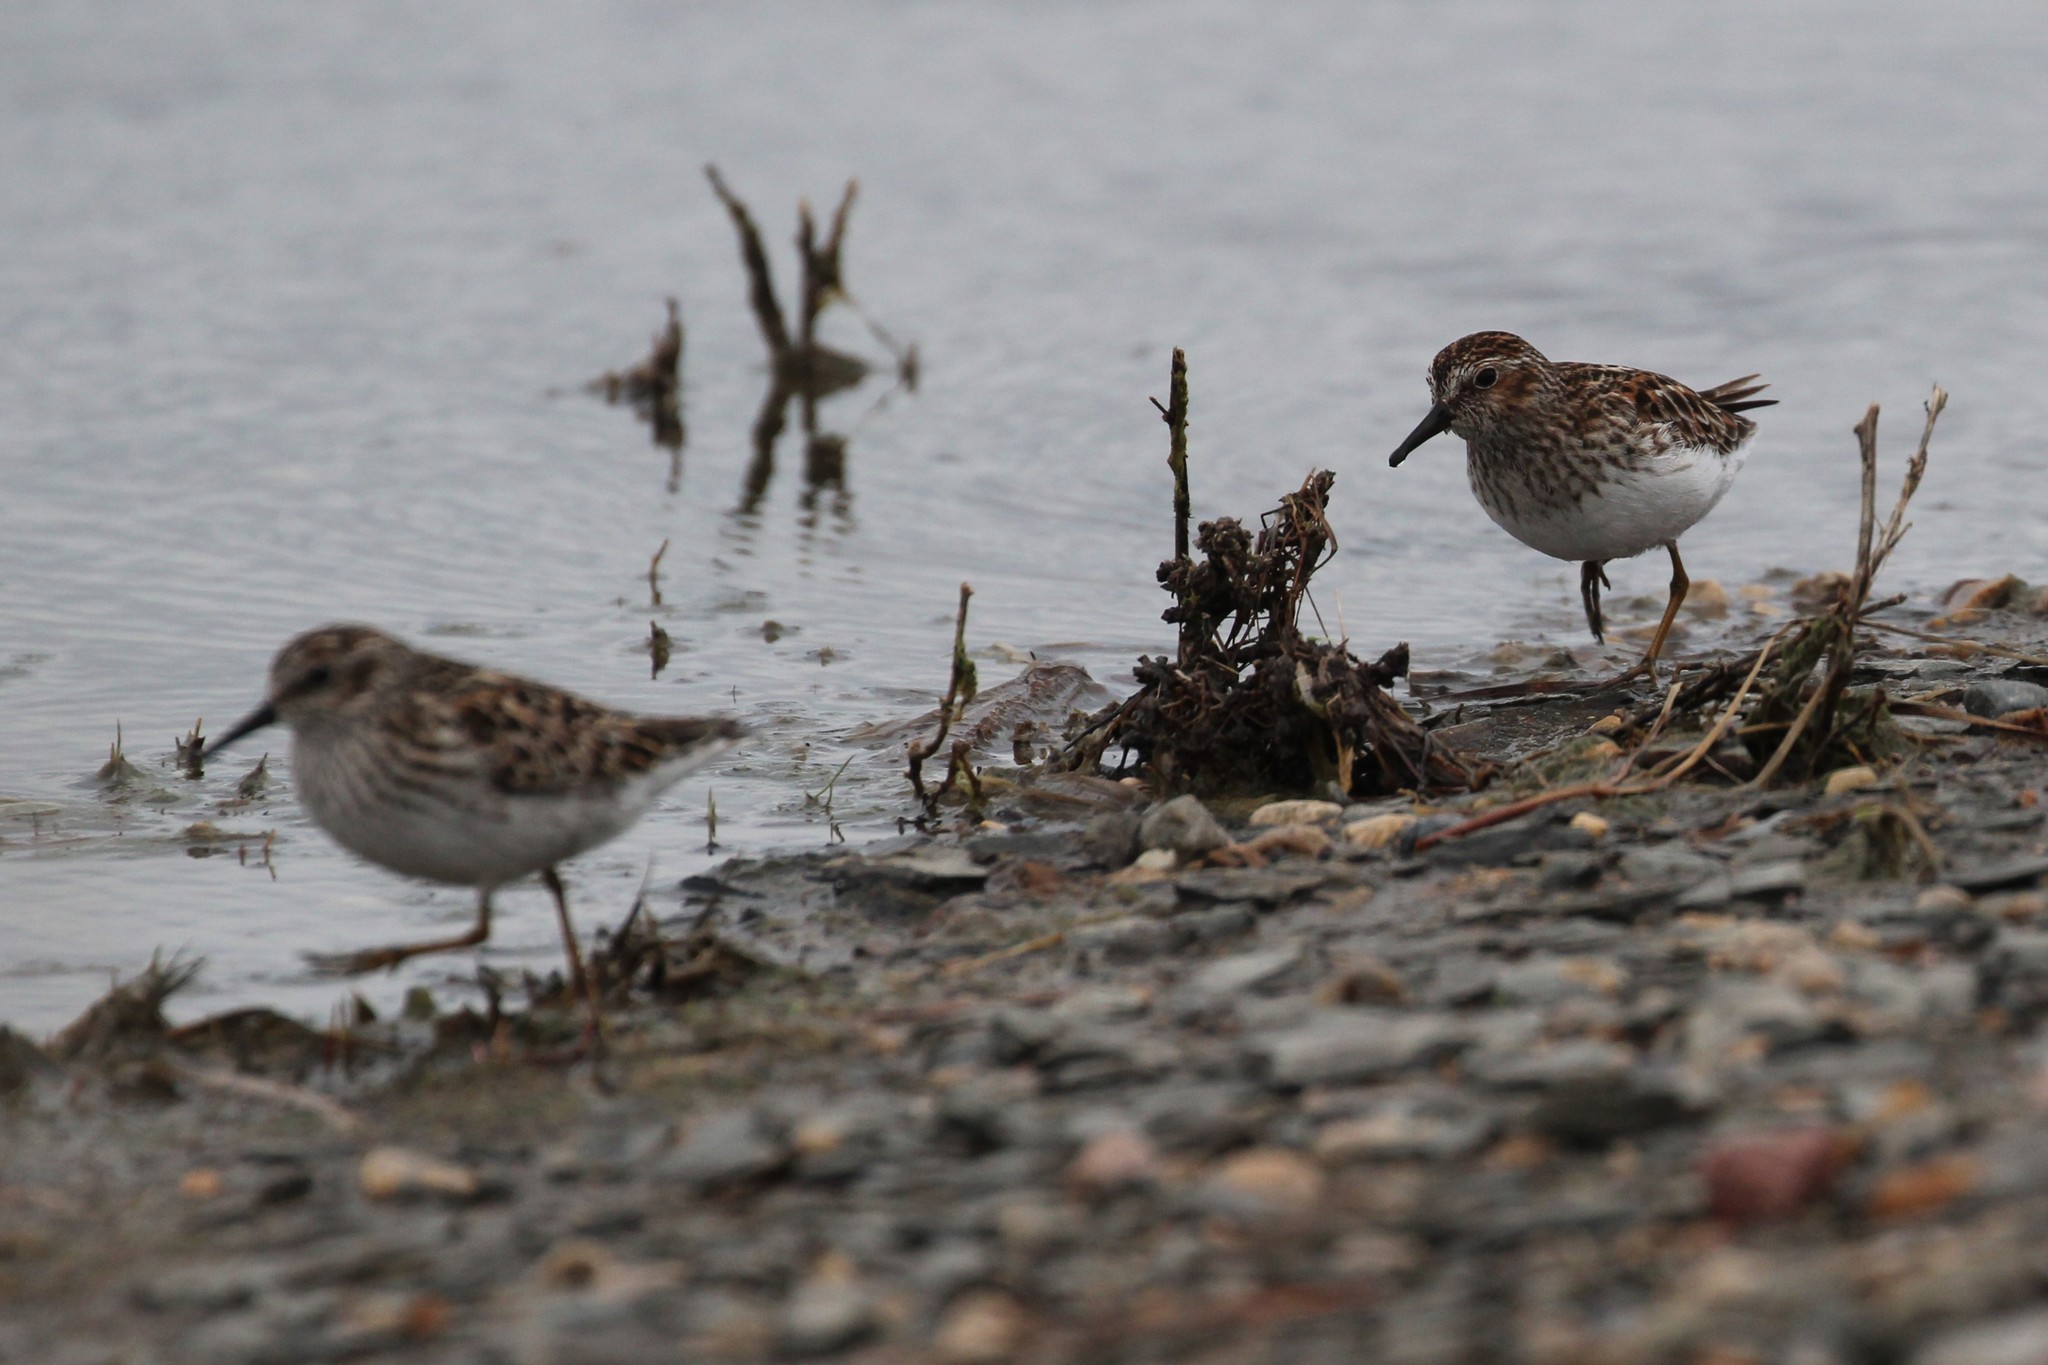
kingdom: Animalia
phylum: Chordata
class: Aves
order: Charadriiformes
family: Scolopacidae
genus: Calidris
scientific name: Calidris minutilla
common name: Least sandpiper
